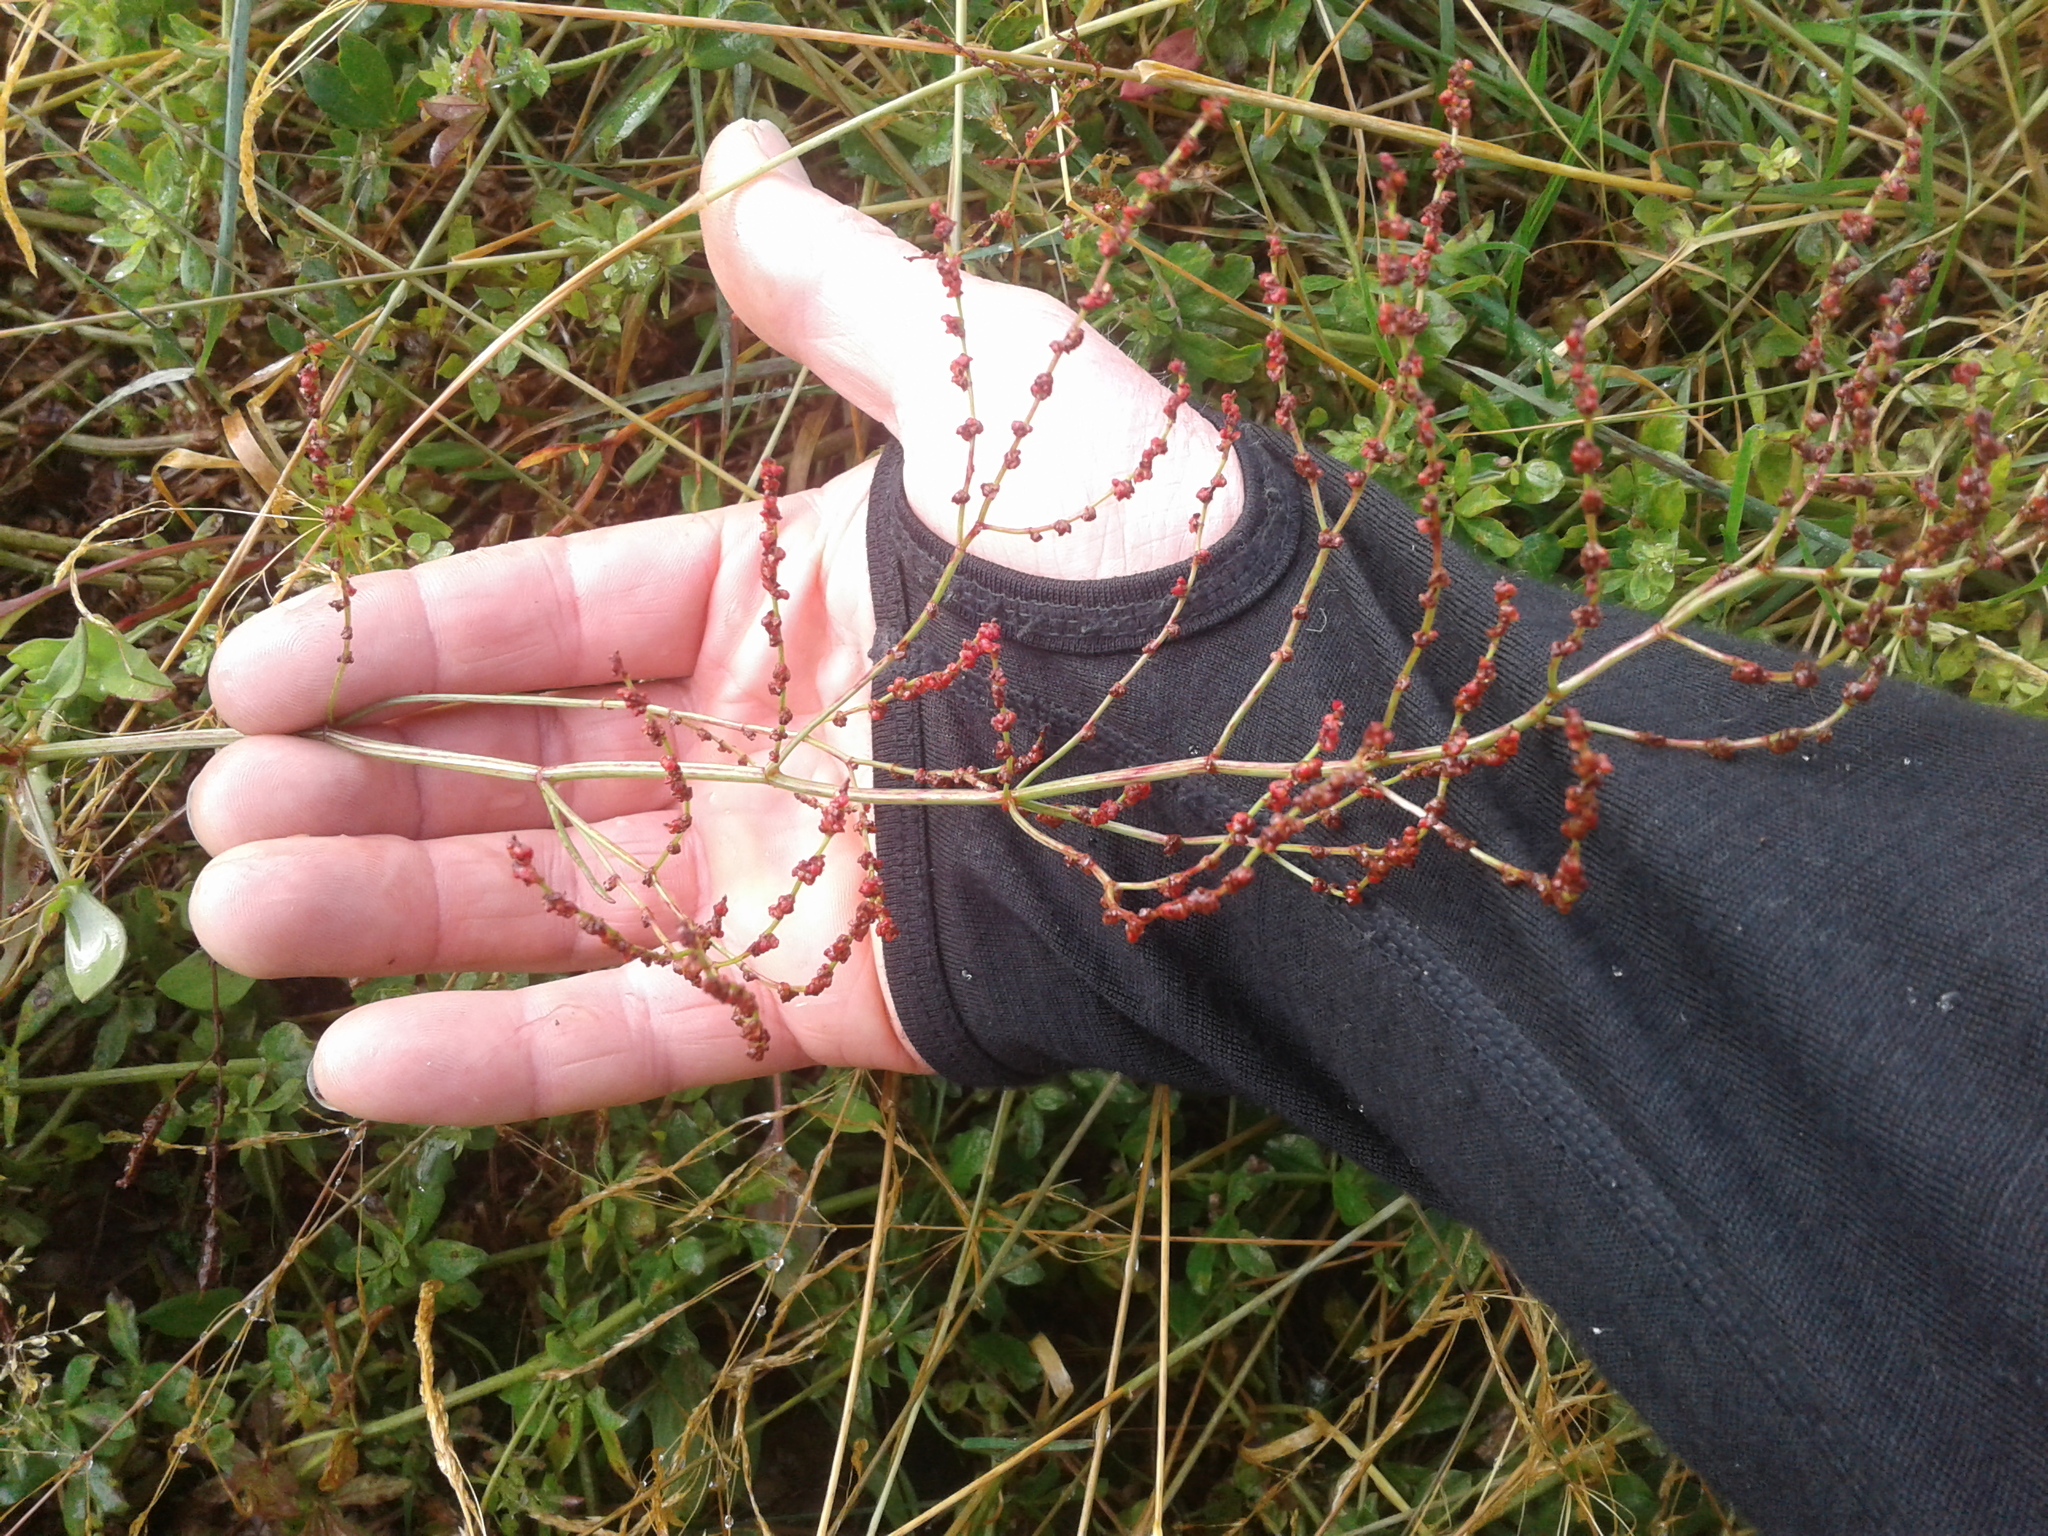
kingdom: Plantae
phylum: Tracheophyta
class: Magnoliopsida
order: Caryophyllales
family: Polygonaceae
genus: Rumex
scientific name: Rumex acetosella
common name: Common sheep sorrel
